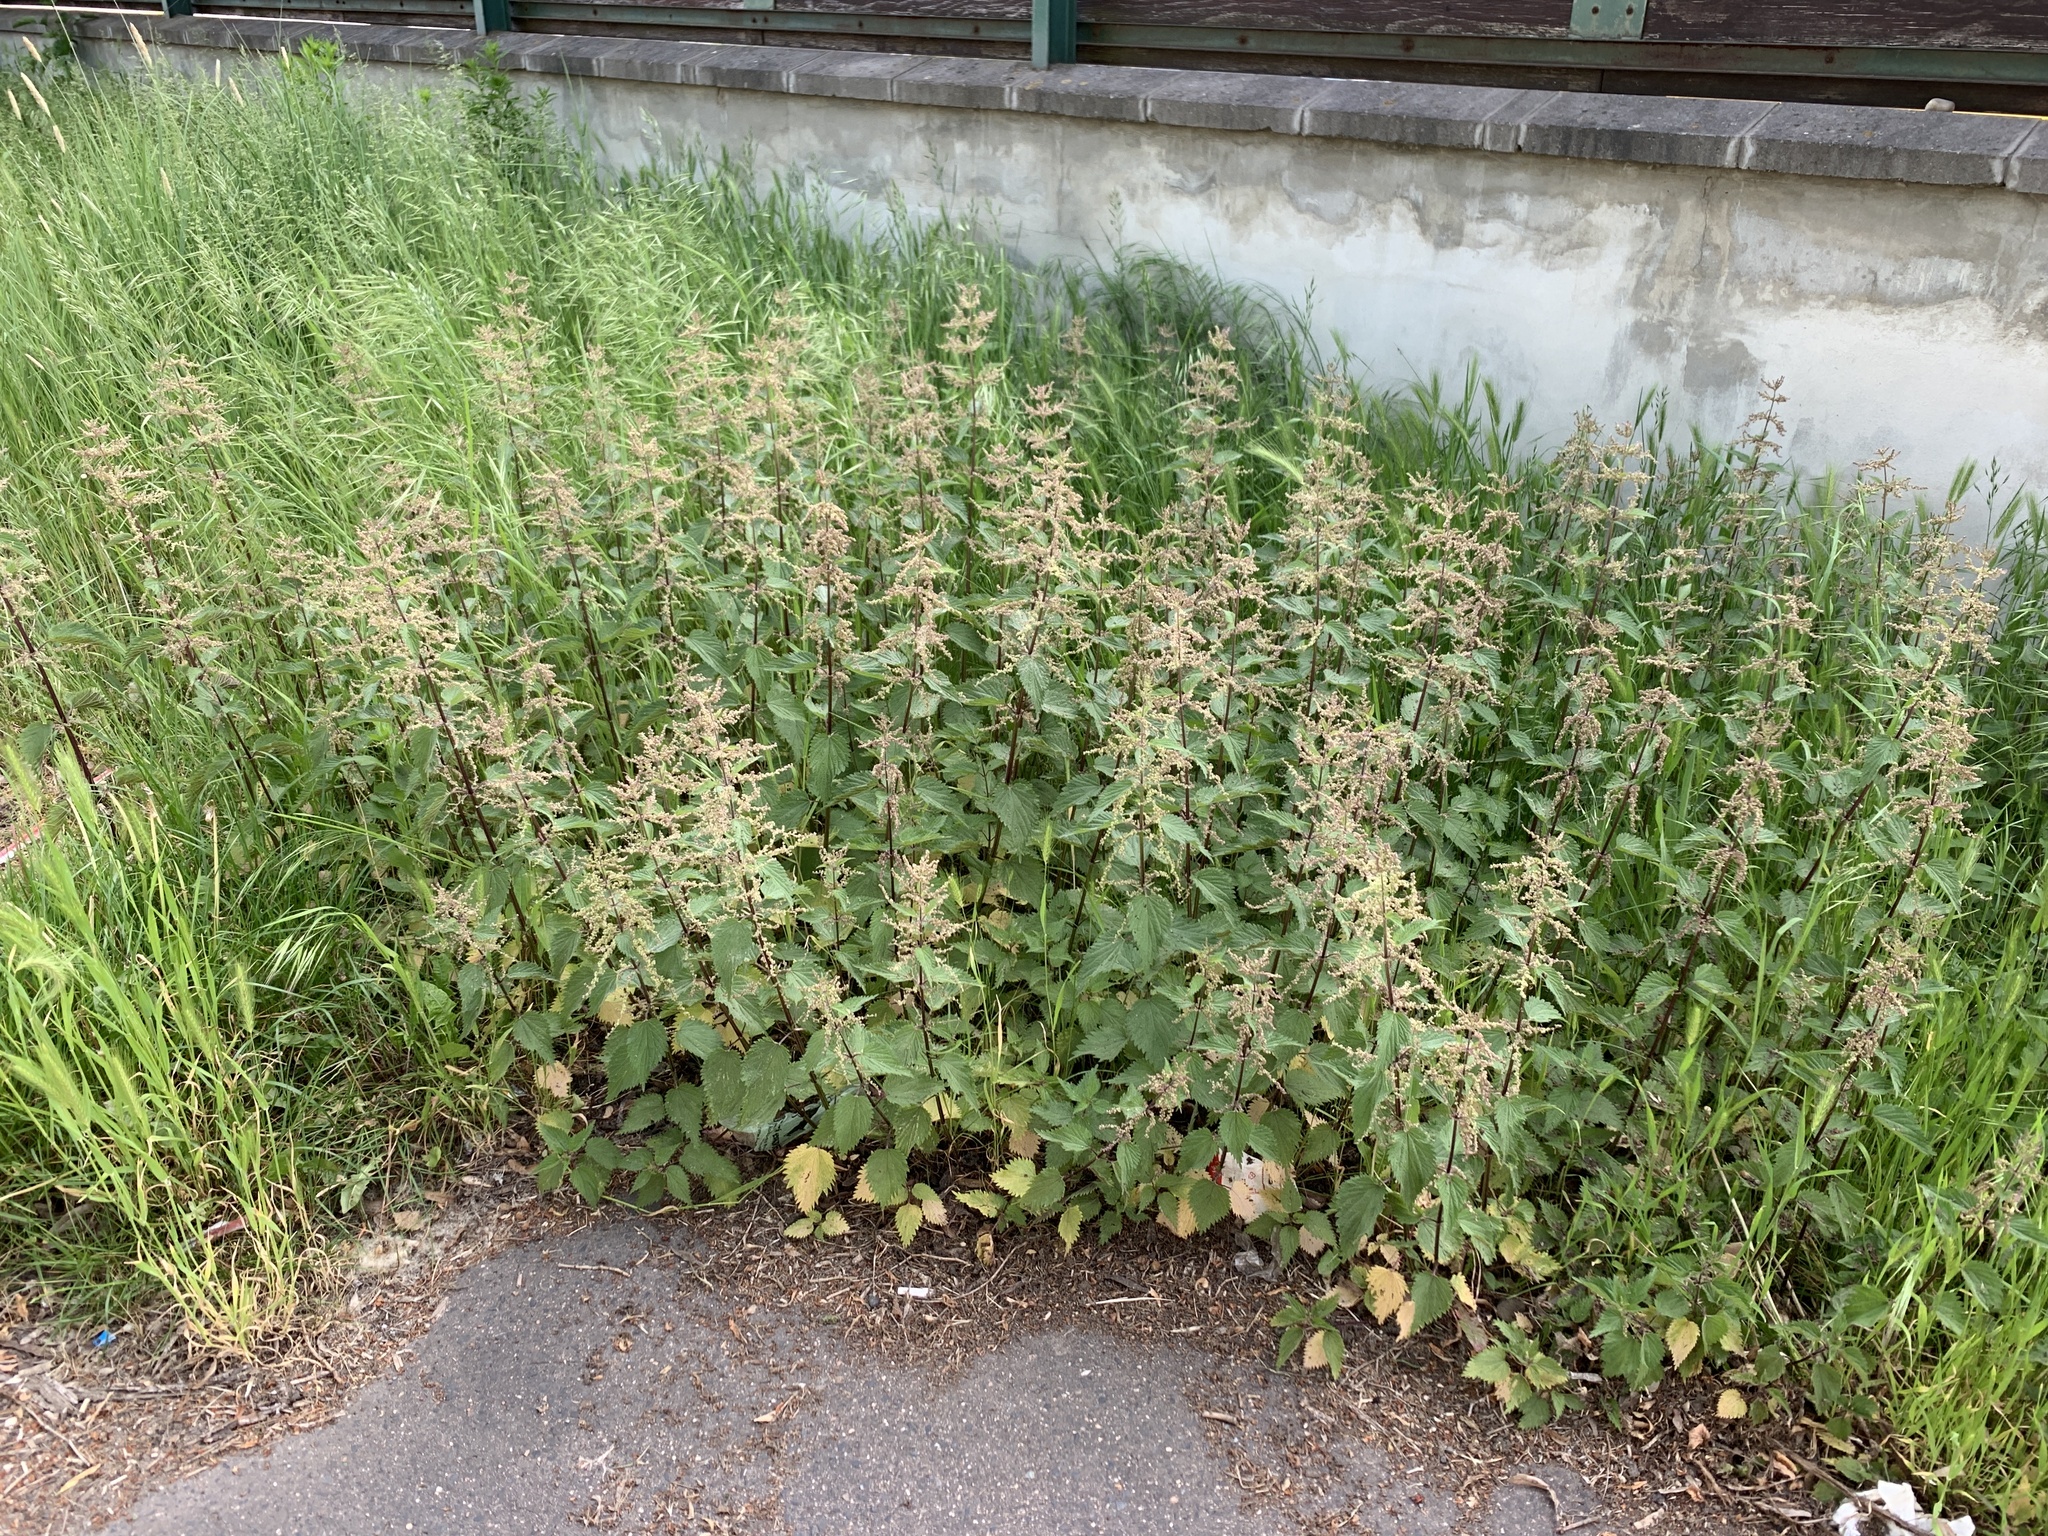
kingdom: Plantae
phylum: Tracheophyta
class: Magnoliopsida
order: Rosales
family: Urticaceae
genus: Urtica
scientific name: Urtica dioica
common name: Common nettle
